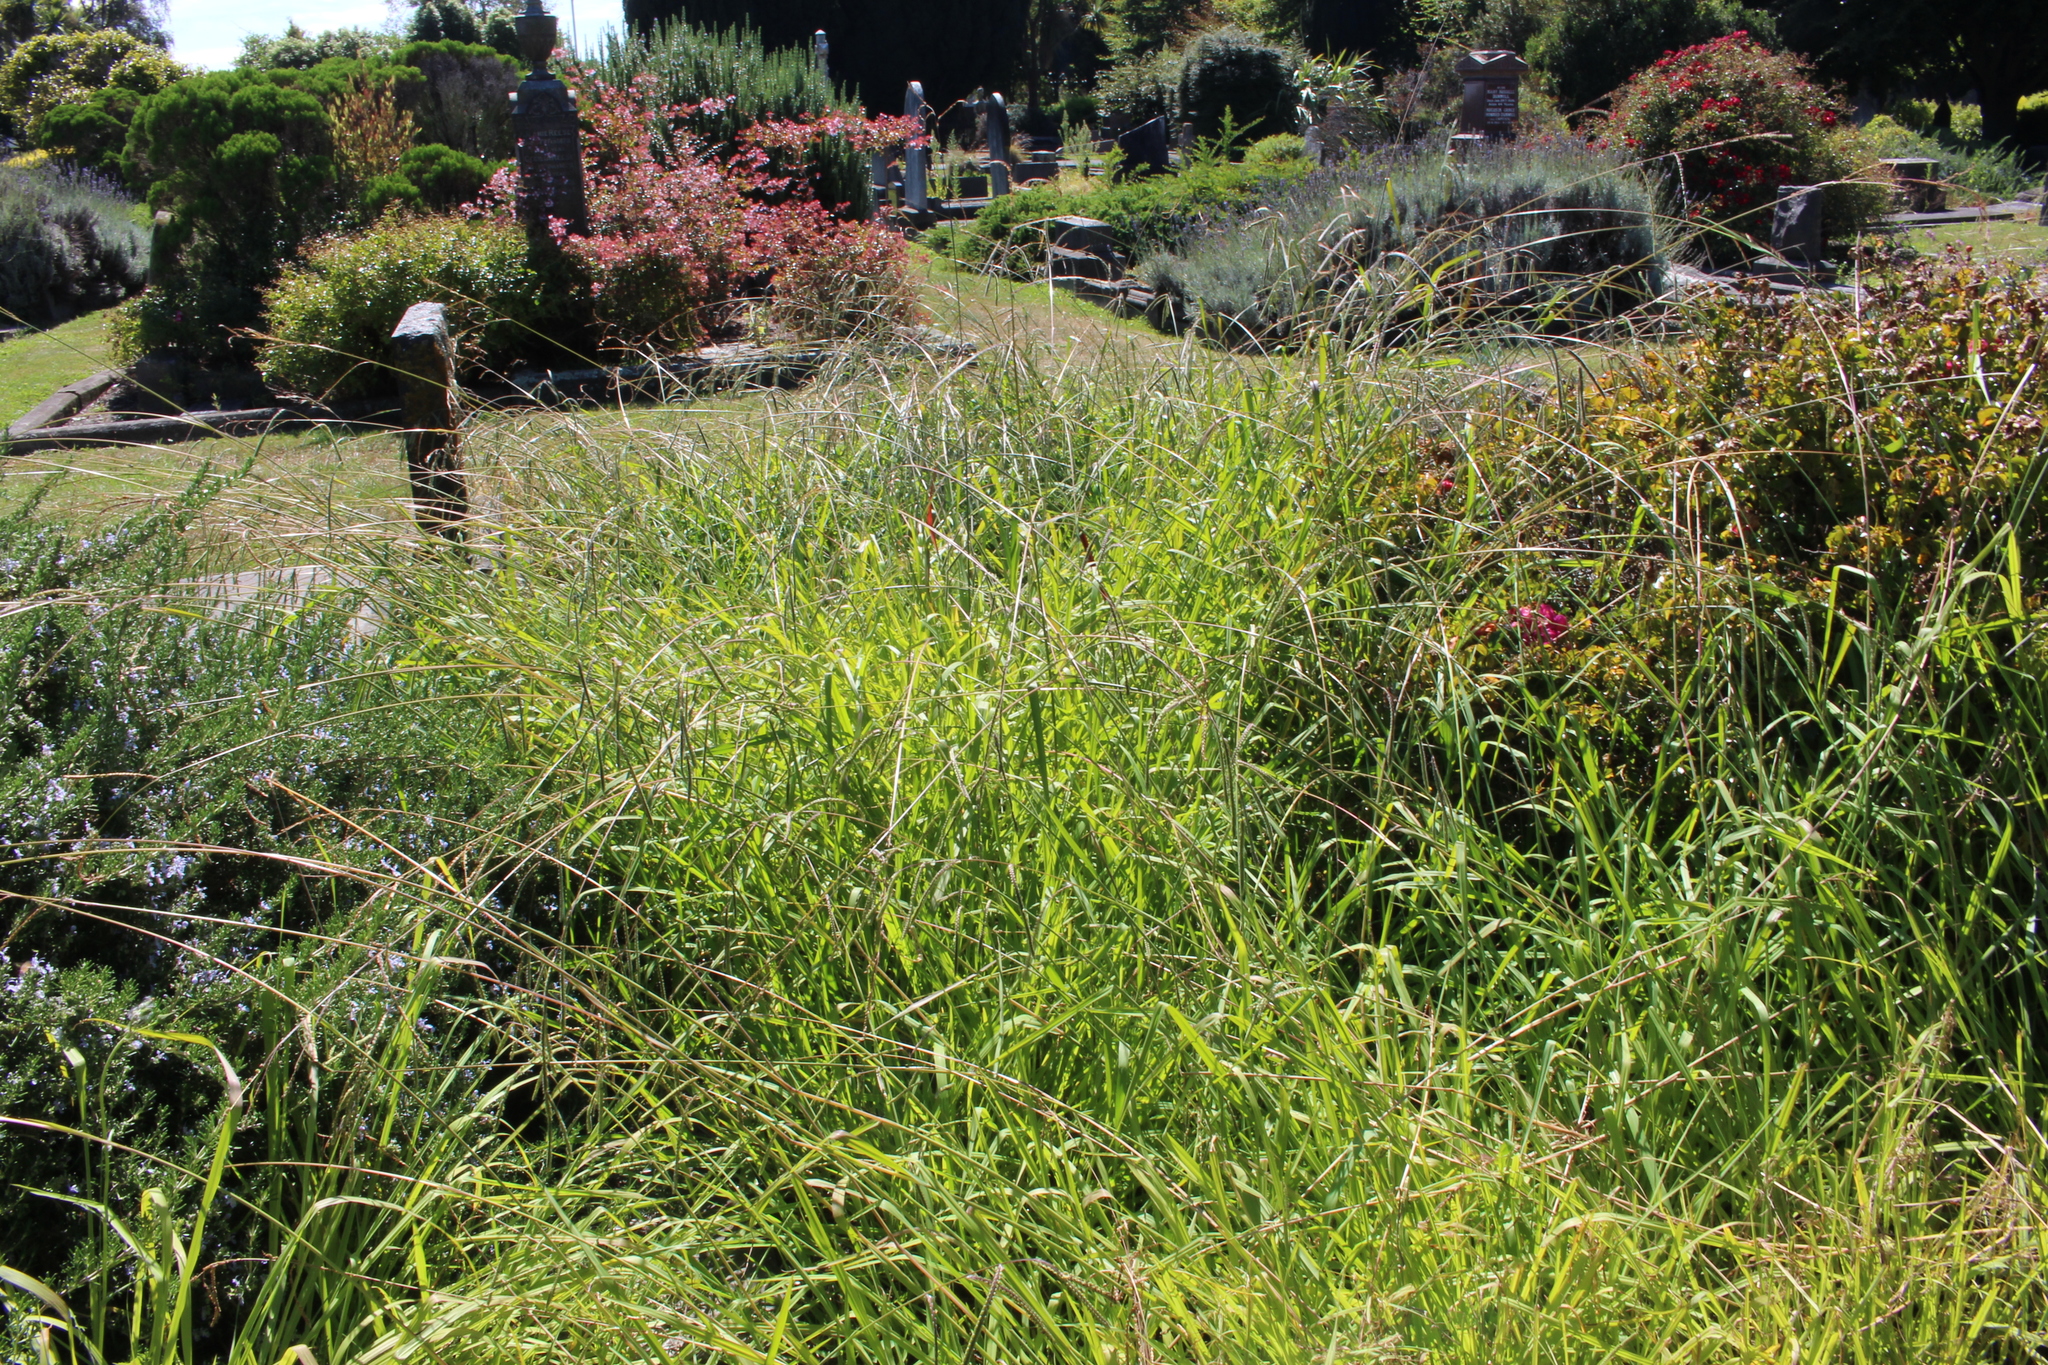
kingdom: Plantae
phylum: Tracheophyta
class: Liliopsida
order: Poales
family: Poaceae
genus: Paspalum
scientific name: Paspalum dilatatum
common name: Dallisgrass
